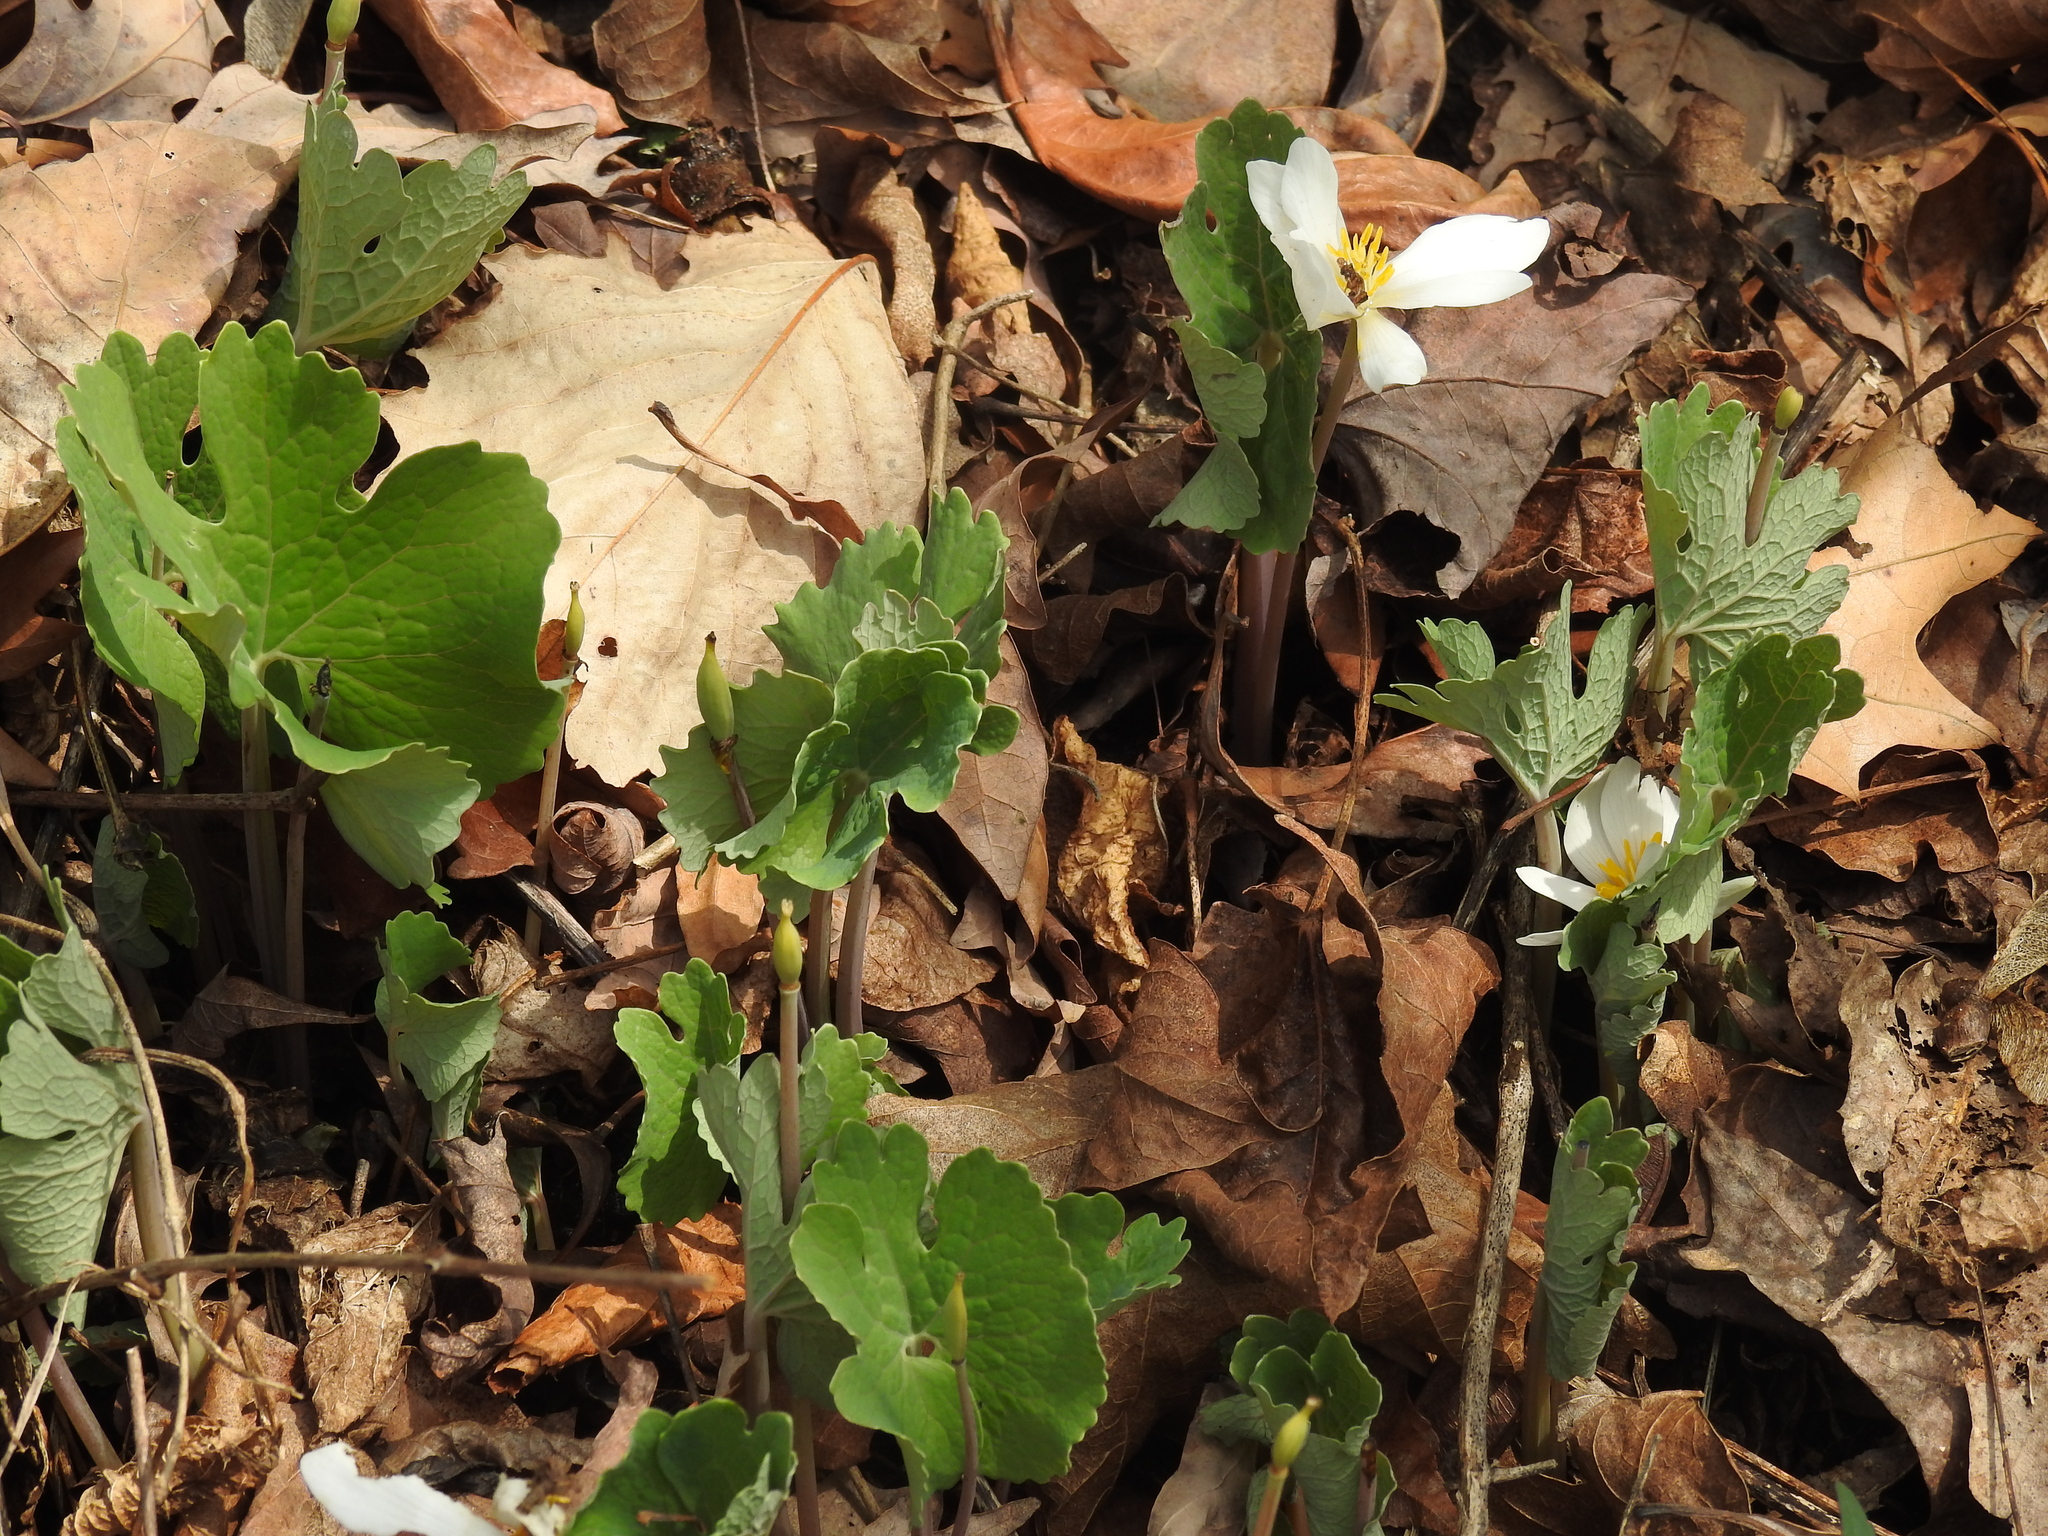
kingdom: Plantae
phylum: Tracheophyta
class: Magnoliopsida
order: Ranunculales
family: Papaveraceae
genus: Sanguinaria
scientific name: Sanguinaria canadensis
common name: Bloodroot
